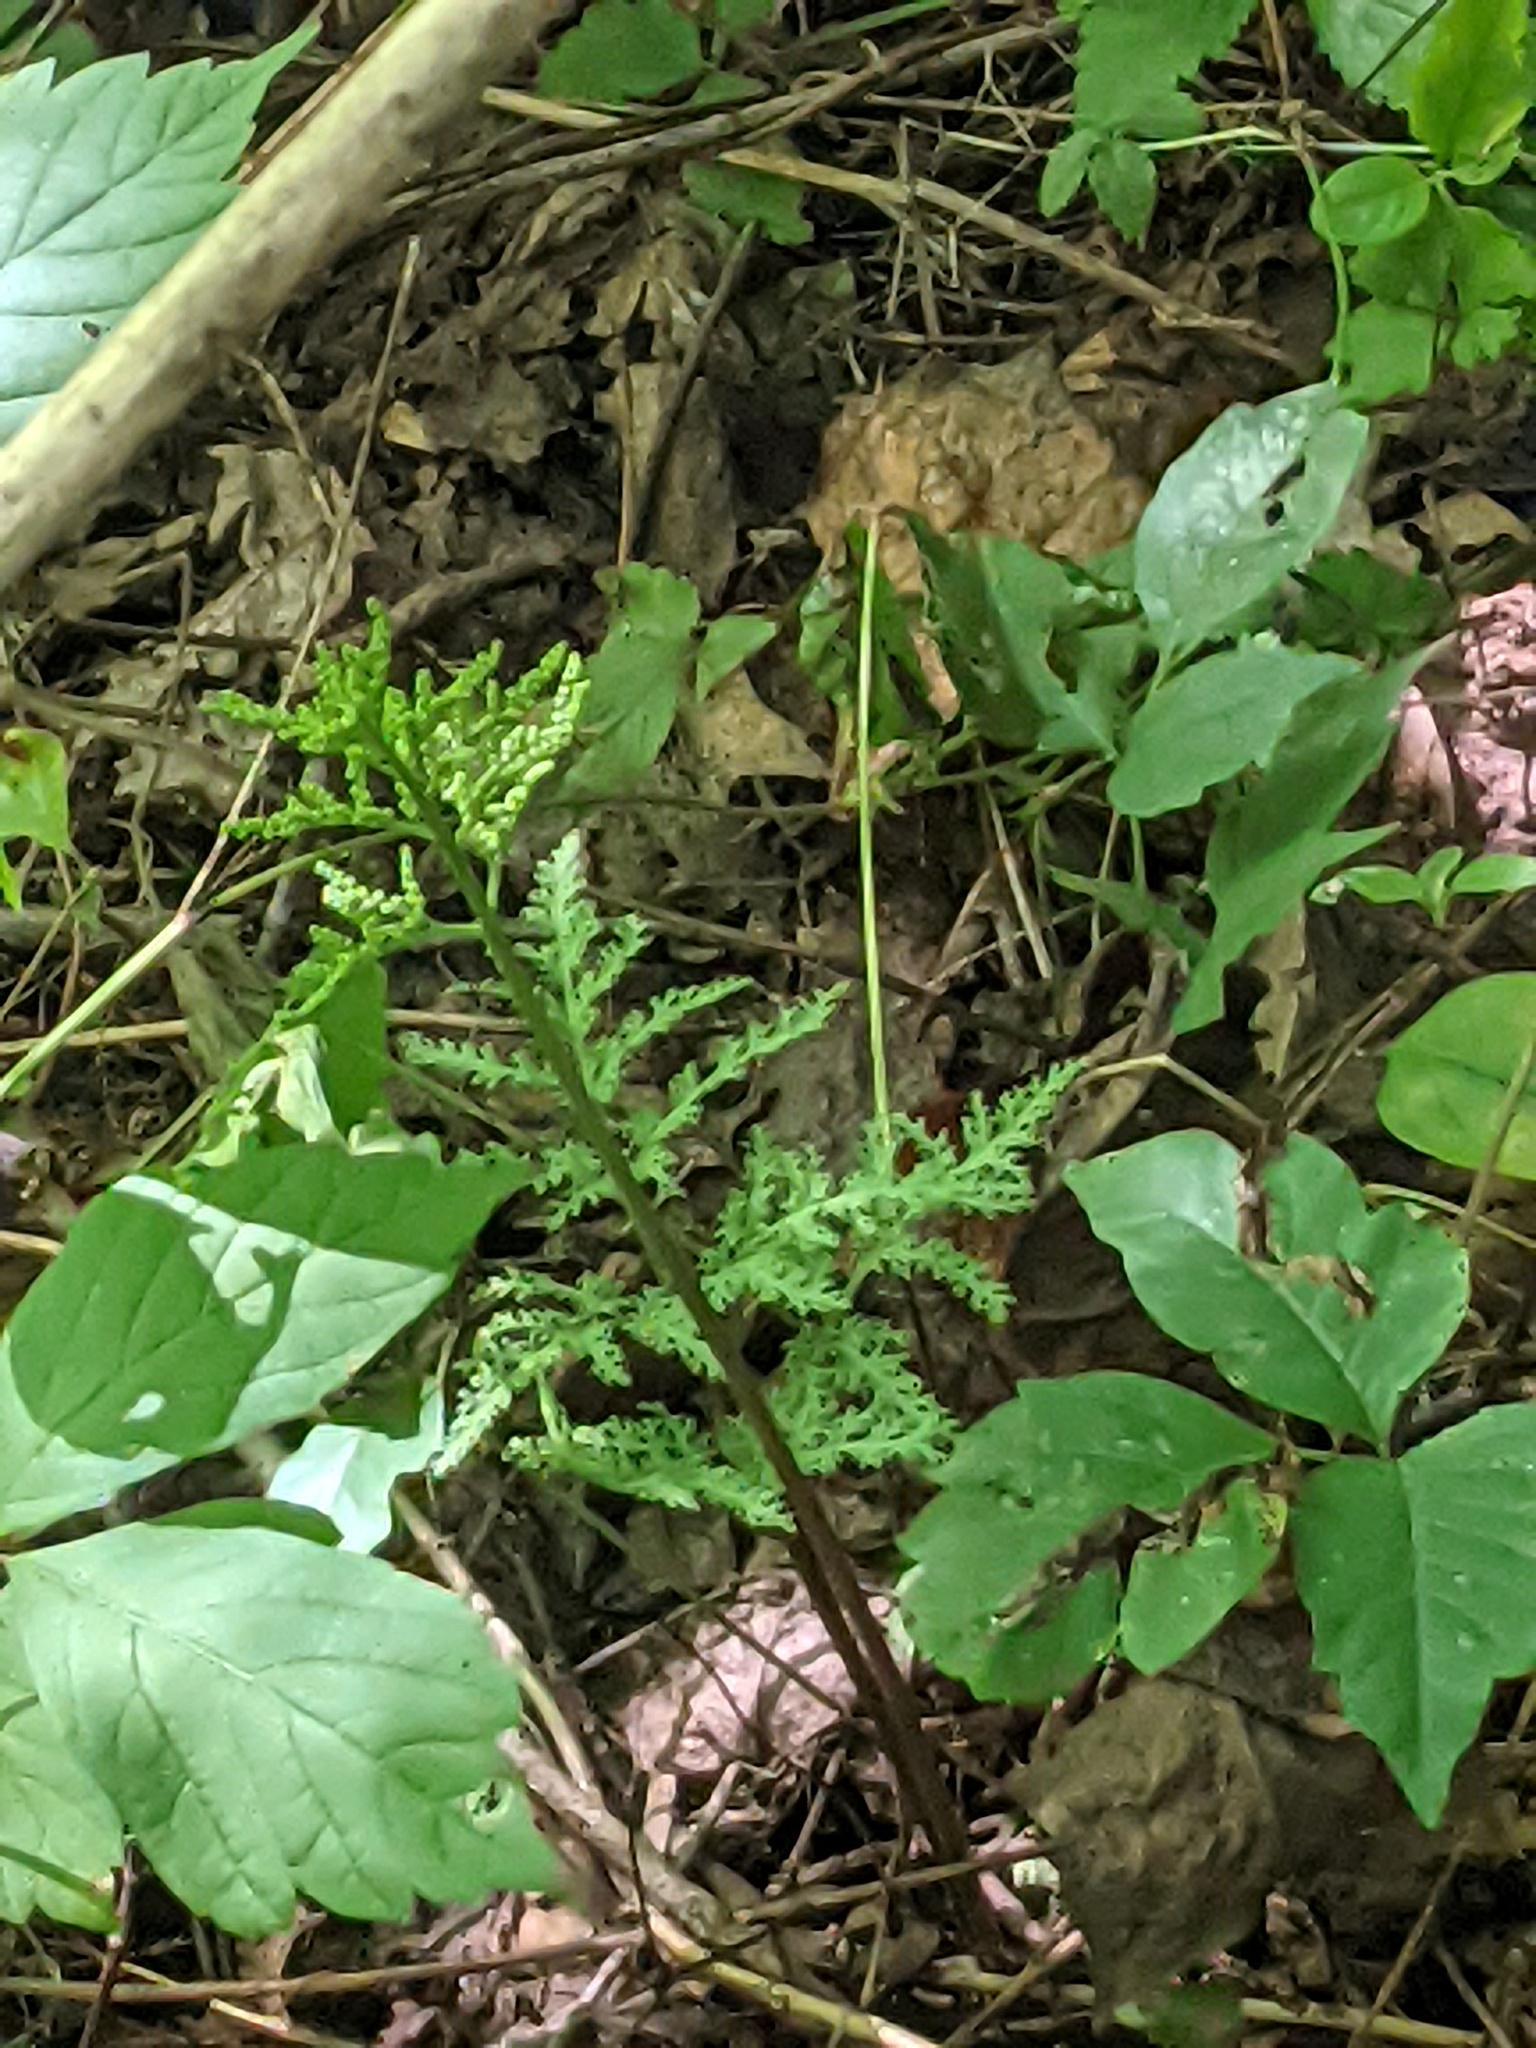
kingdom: Plantae
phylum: Tracheophyta
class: Polypodiopsida
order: Ophioglossales
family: Ophioglossaceae
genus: Sceptridium
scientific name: Sceptridium dissectum
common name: Cut-leaved grapefern
